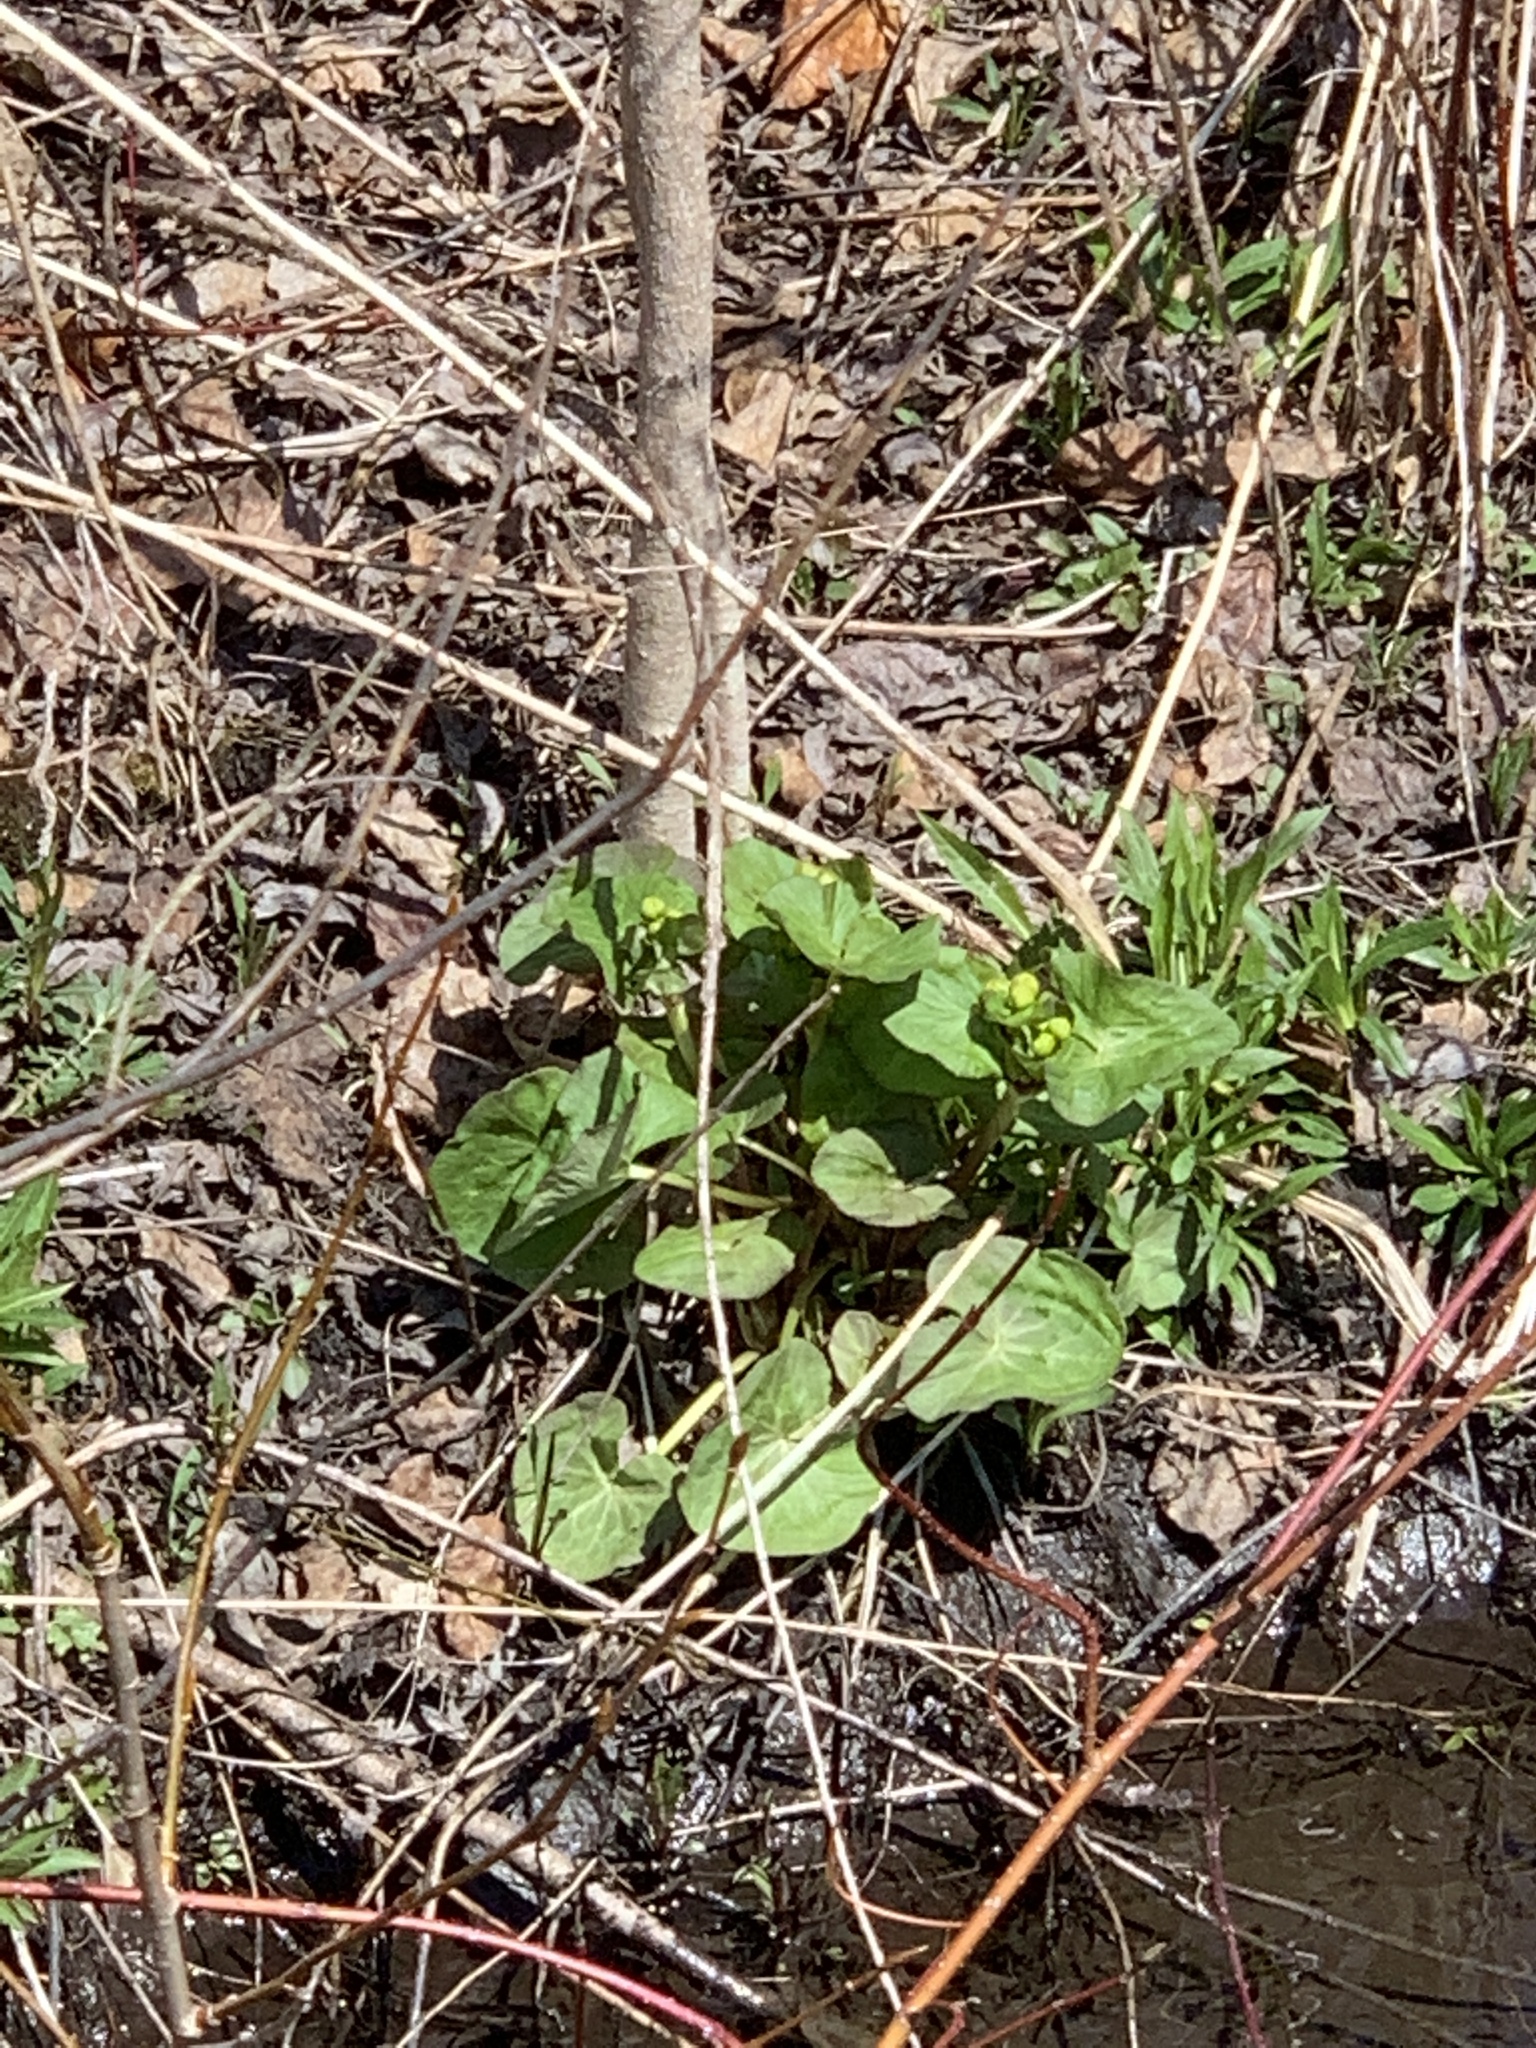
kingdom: Plantae
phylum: Tracheophyta
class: Magnoliopsida
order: Ranunculales
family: Ranunculaceae
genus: Caltha
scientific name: Caltha palustris
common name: Marsh marigold
